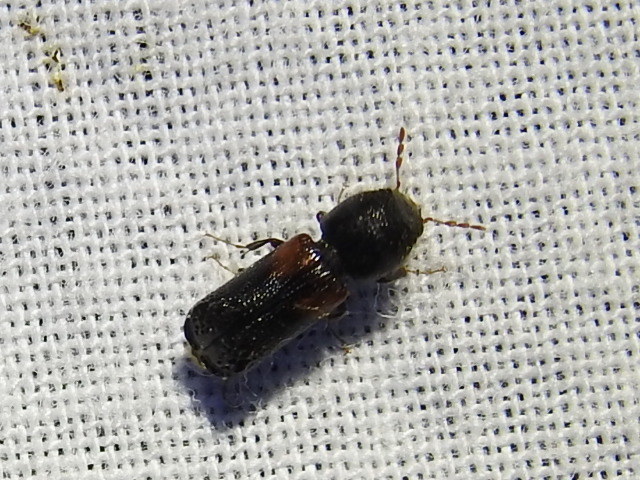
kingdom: Animalia
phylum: Arthropoda
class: Insecta
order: Coleoptera
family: Bostrichidae
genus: Xylobiops
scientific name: Xylobiops basilaris
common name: Red-shouldered bostrichid
